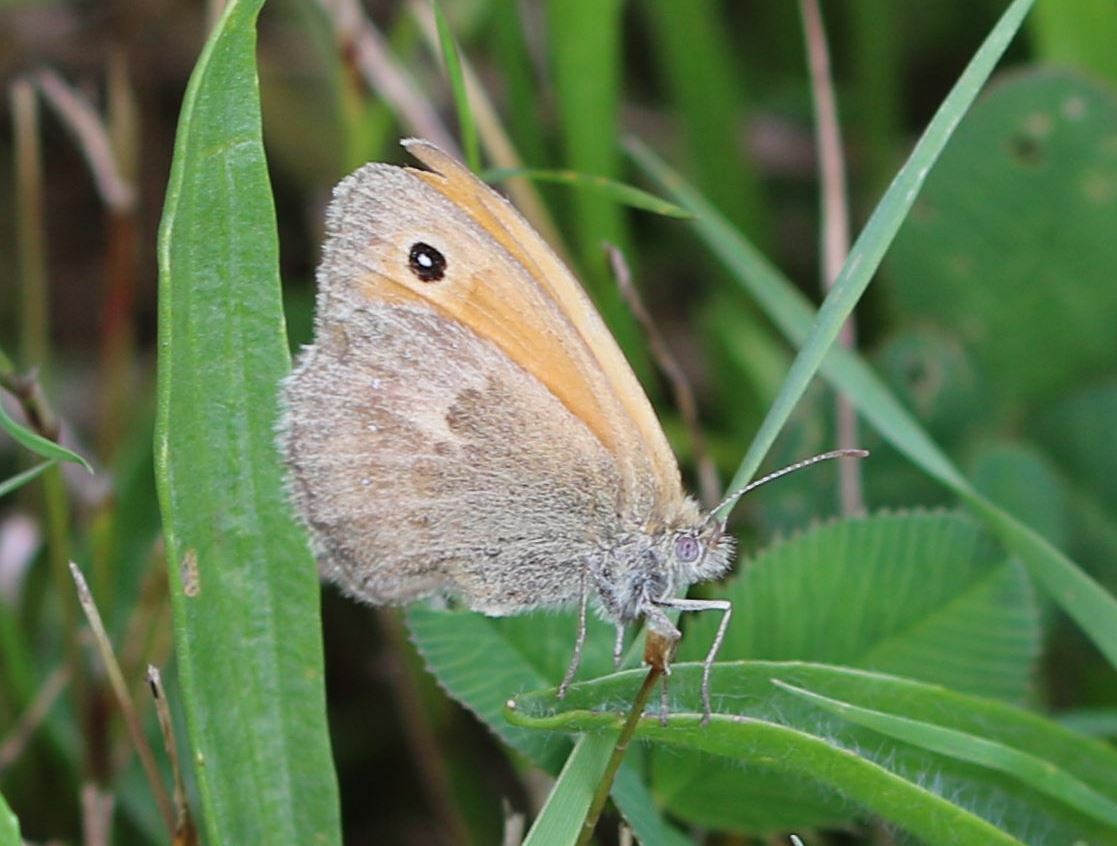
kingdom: Animalia
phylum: Arthropoda
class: Insecta
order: Lepidoptera
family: Nymphalidae
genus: Coenonympha
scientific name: Coenonympha pamphilus
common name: Small heath
